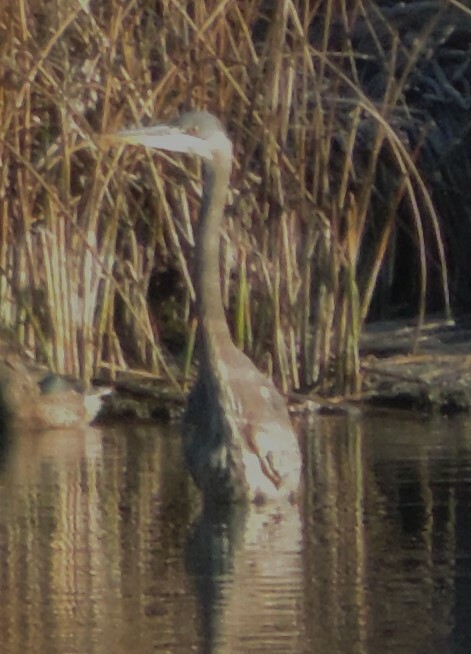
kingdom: Animalia
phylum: Chordata
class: Aves
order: Pelecaniformes
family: Ardeidae
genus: Ardea
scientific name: Ardea herodias
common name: Great blue heron
